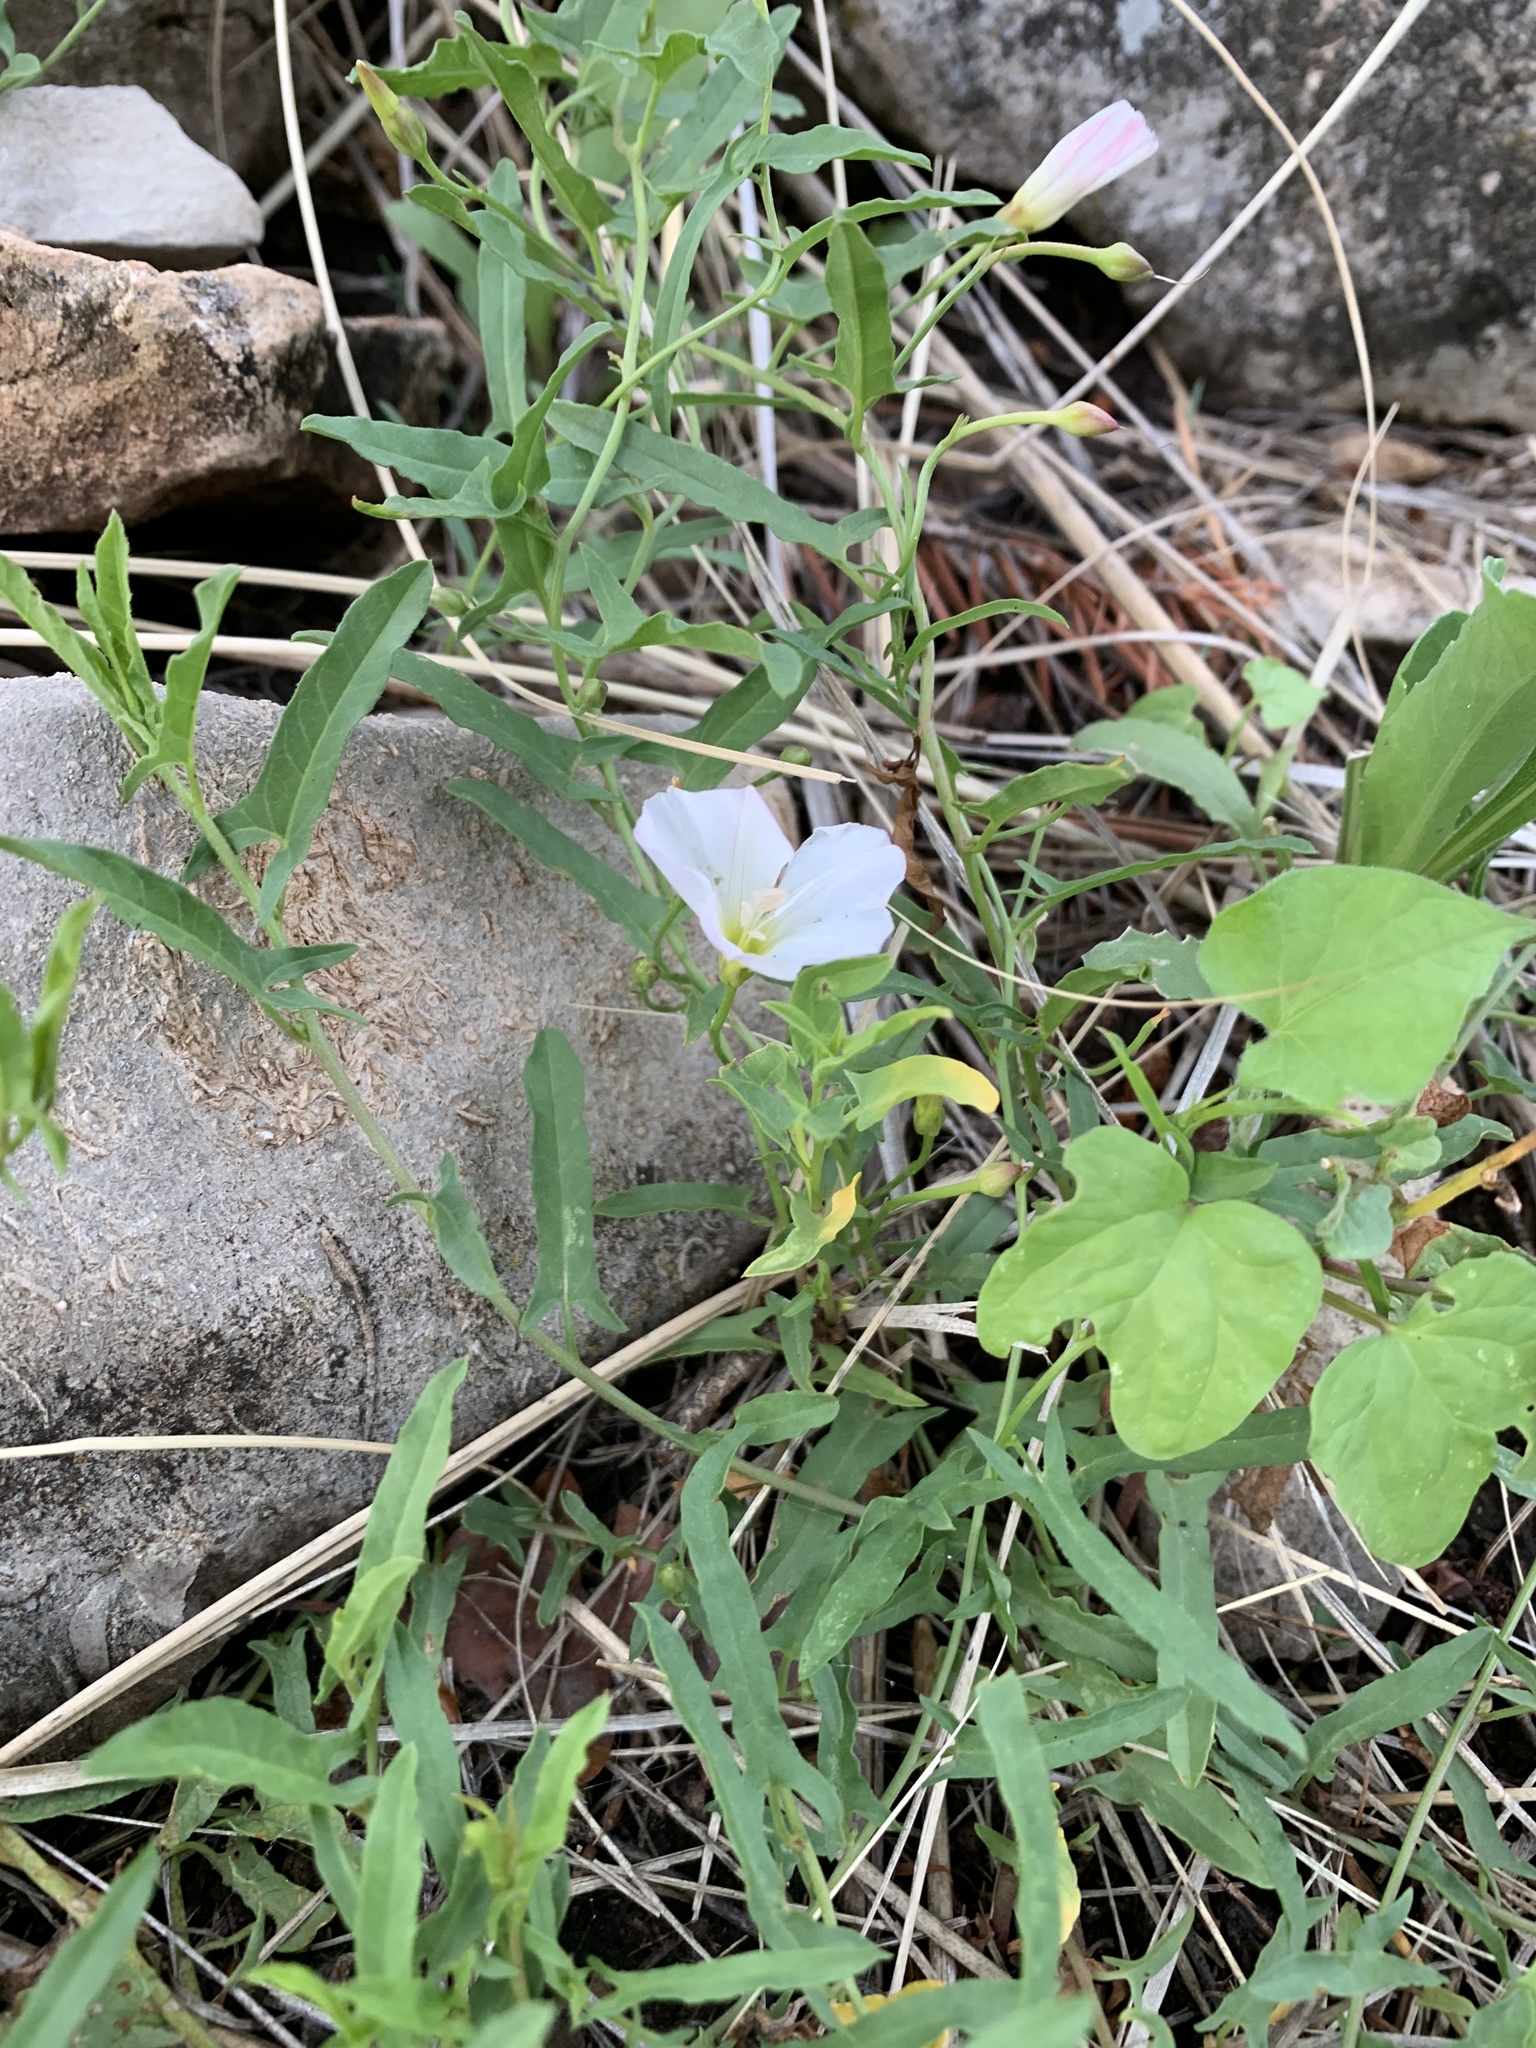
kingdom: Plantae
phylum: Tracheophyta
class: Magnoliopsida
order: Solanales
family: Convolvulaceae
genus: Convolvulus
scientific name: Convolvulus arvensis
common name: Field bindweed
